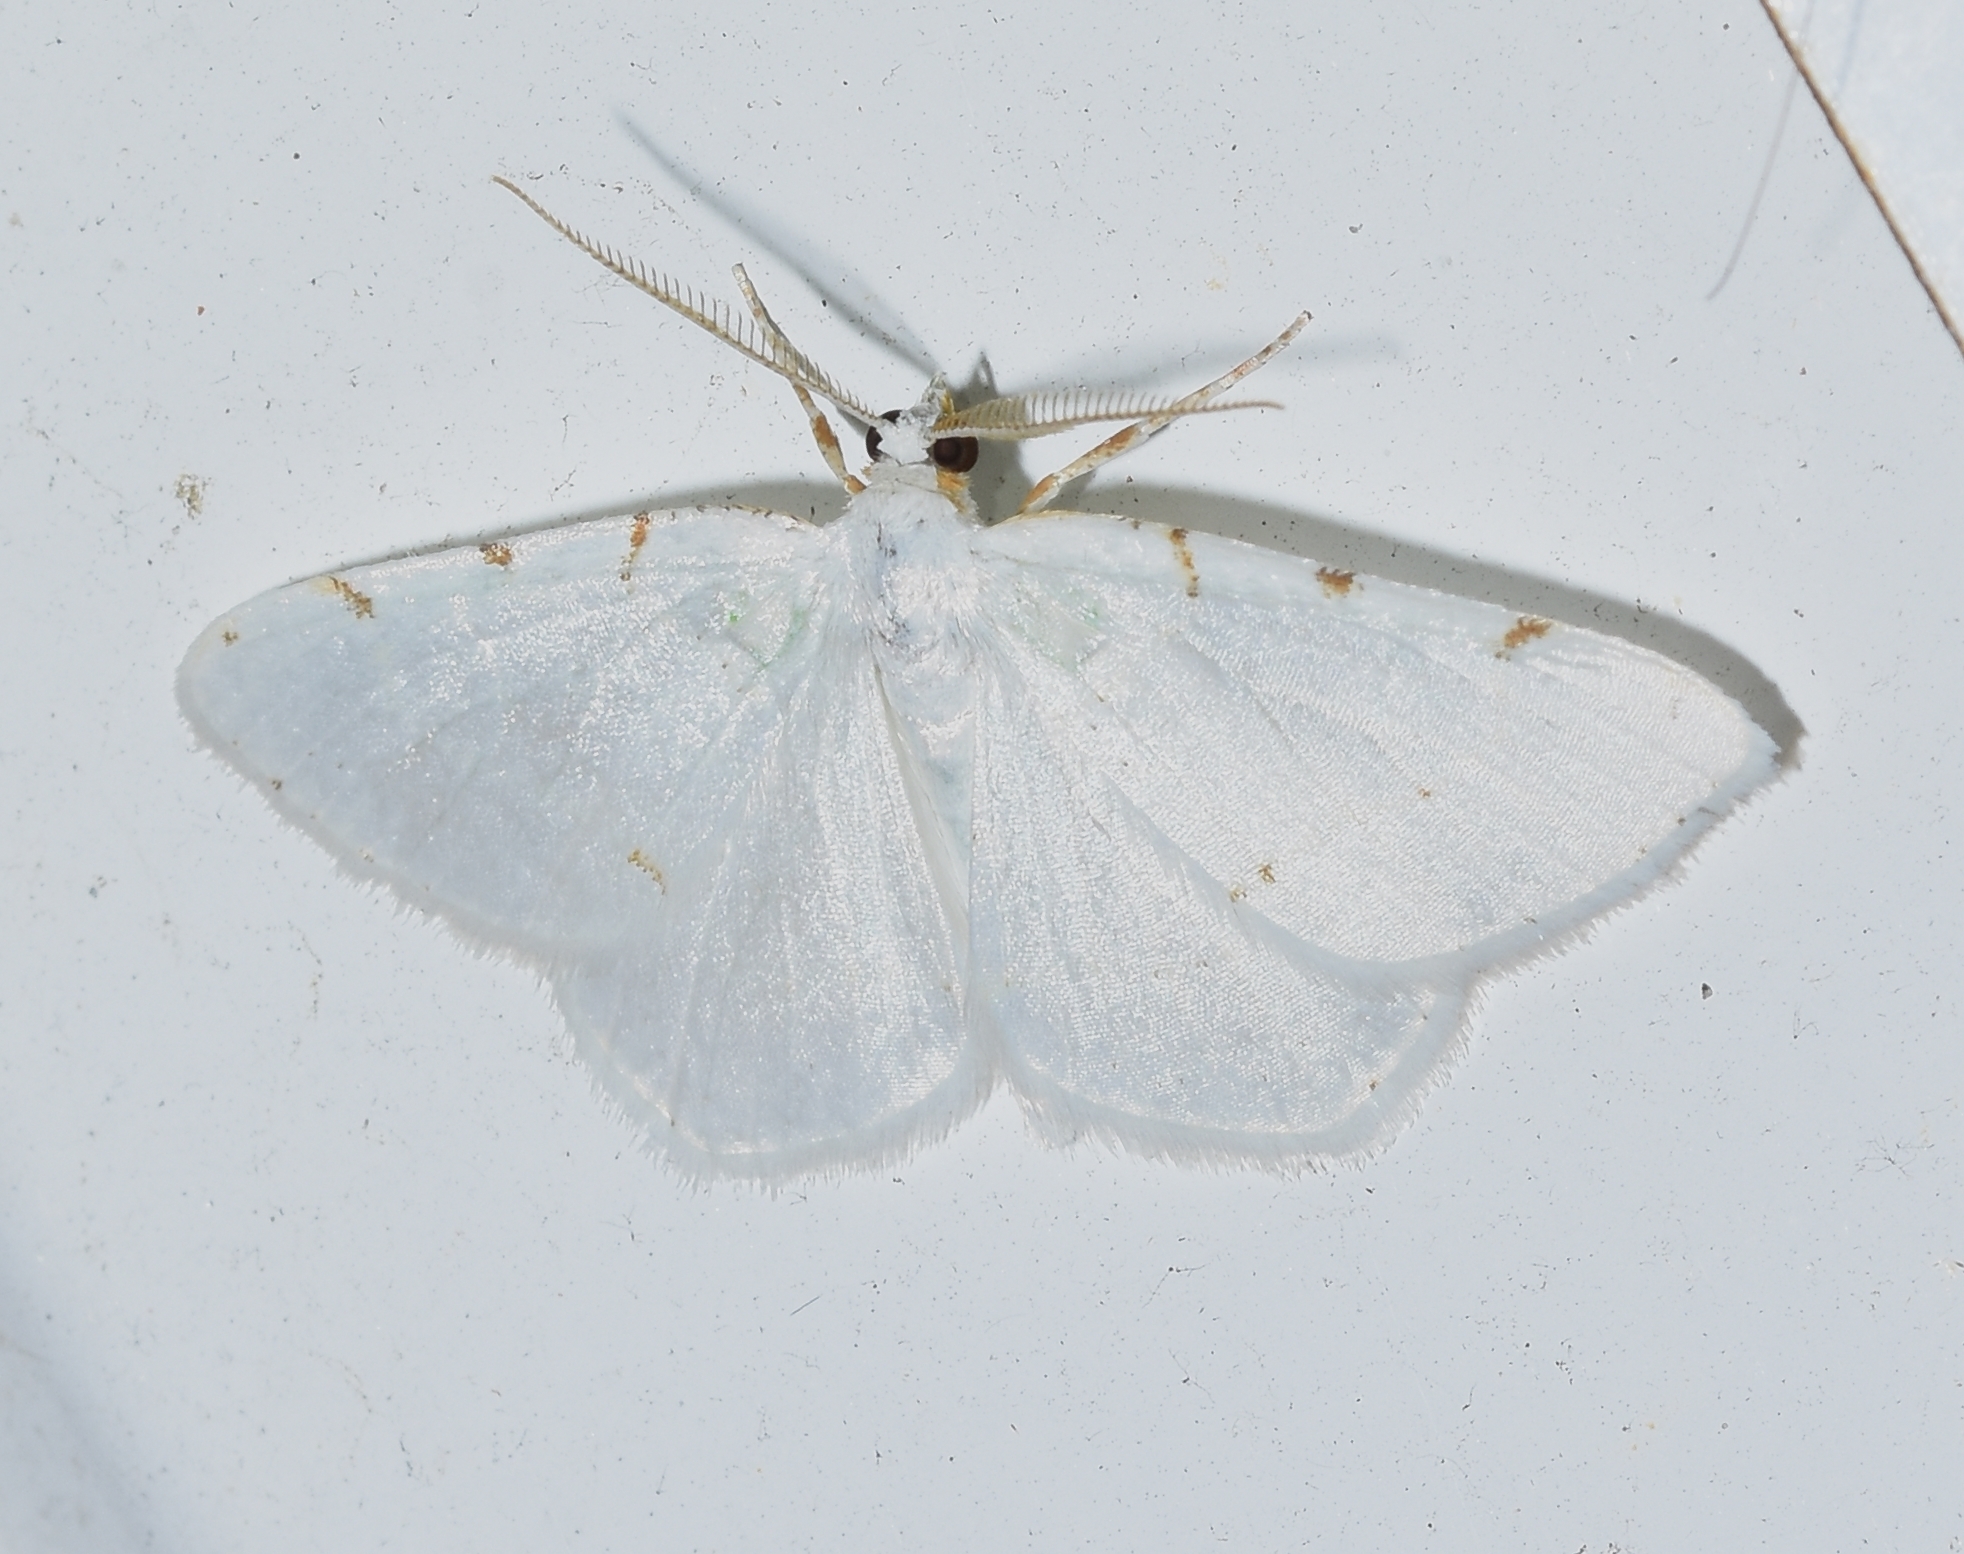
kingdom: Animalia
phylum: Arthropoda
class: Insecta
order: Lepidoptera
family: Geometridae
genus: Macaria
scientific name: Macaria pustularia
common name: Lesser maple spanworm moth
